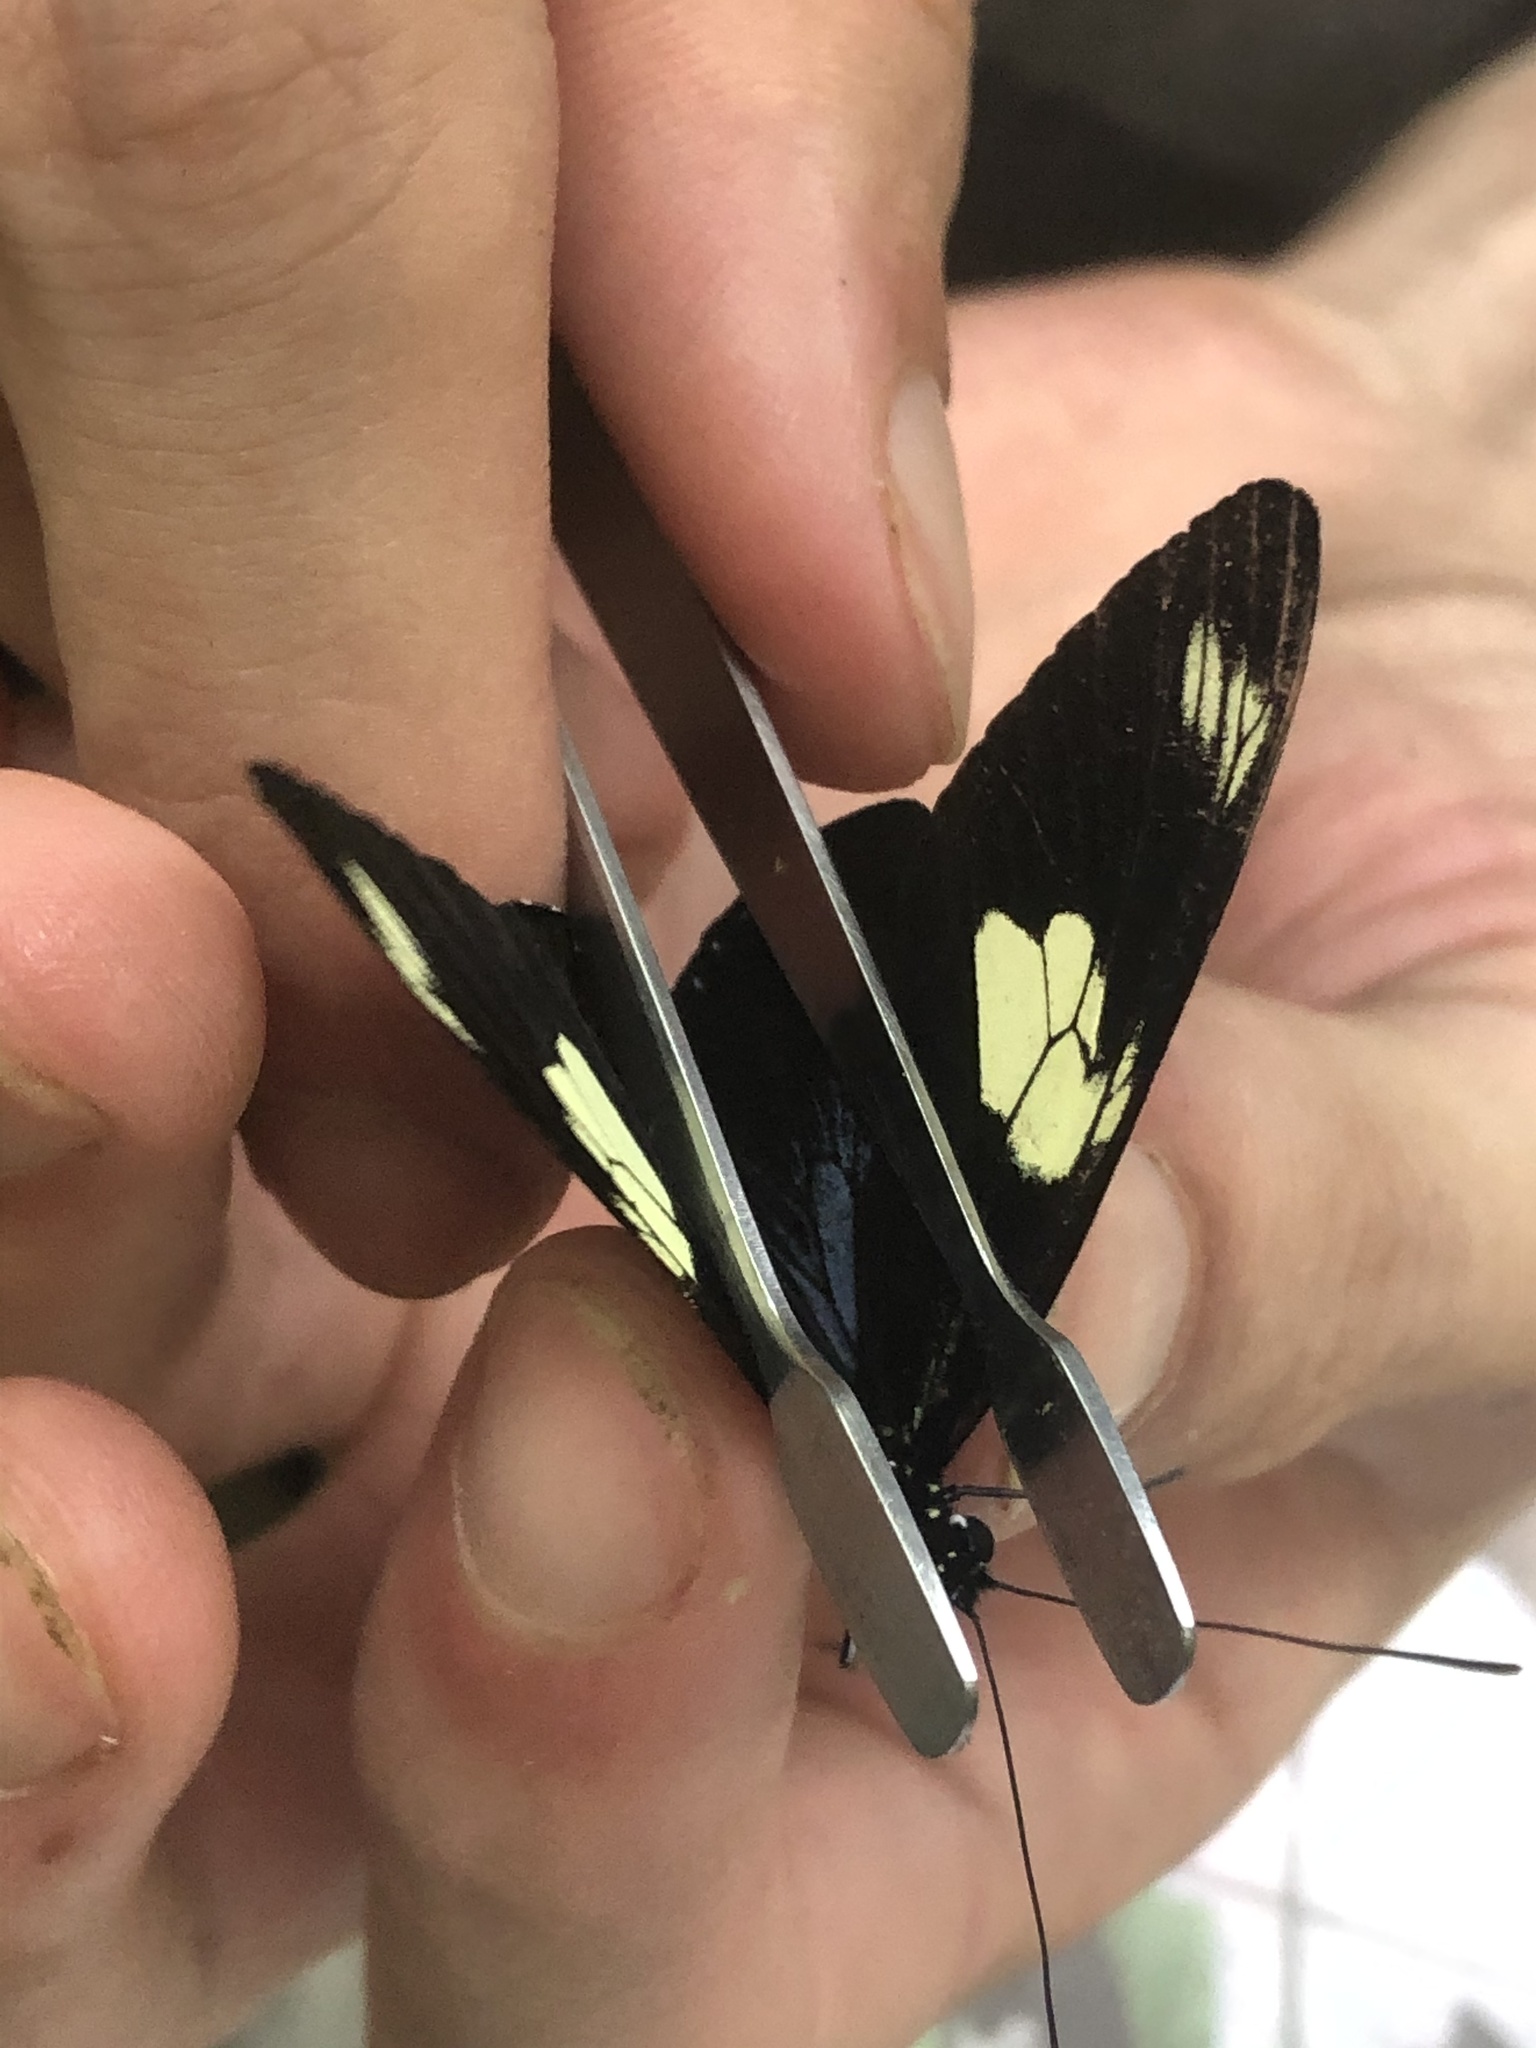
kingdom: Animalia
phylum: Arthropoda
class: Insecta
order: Lepidoptera
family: Nymphalidae
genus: Heliconius
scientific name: Heliconius doris
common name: Doris longwing
